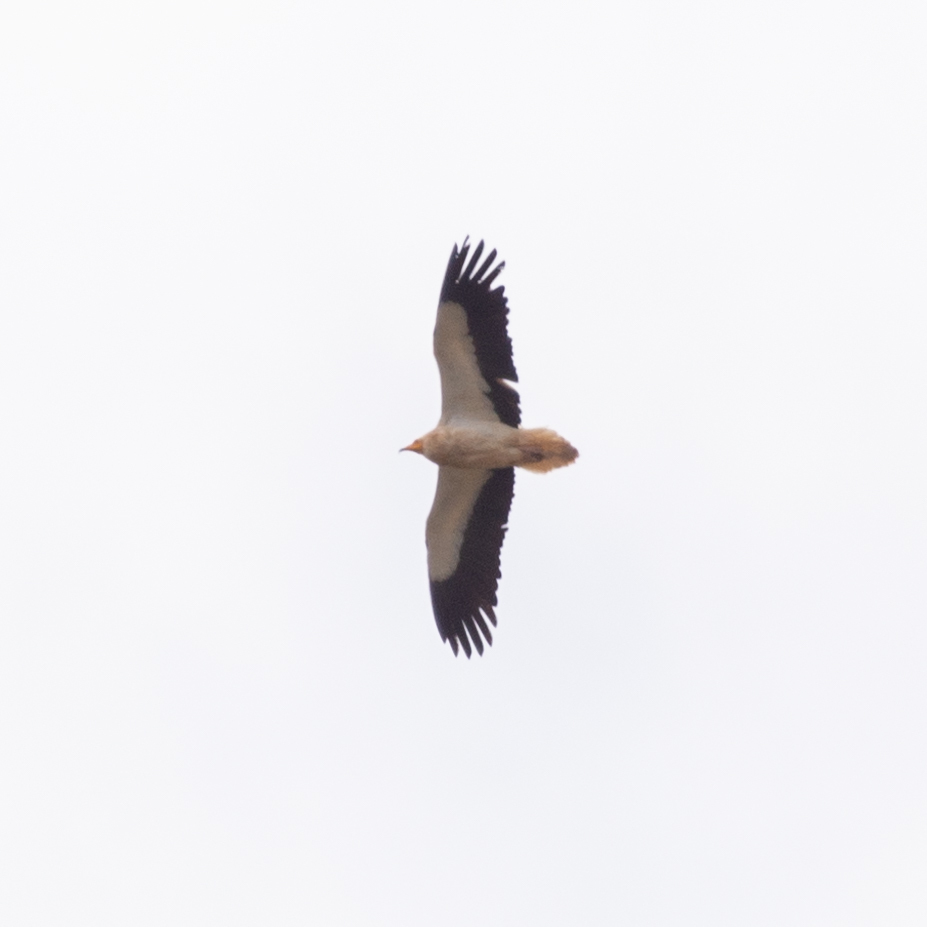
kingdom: Animalia
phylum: Chordata
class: Aves
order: Accipitriformes
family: Accipitridae
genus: Neophron
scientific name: Neophron percnopterus
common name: Egyptian vulture
